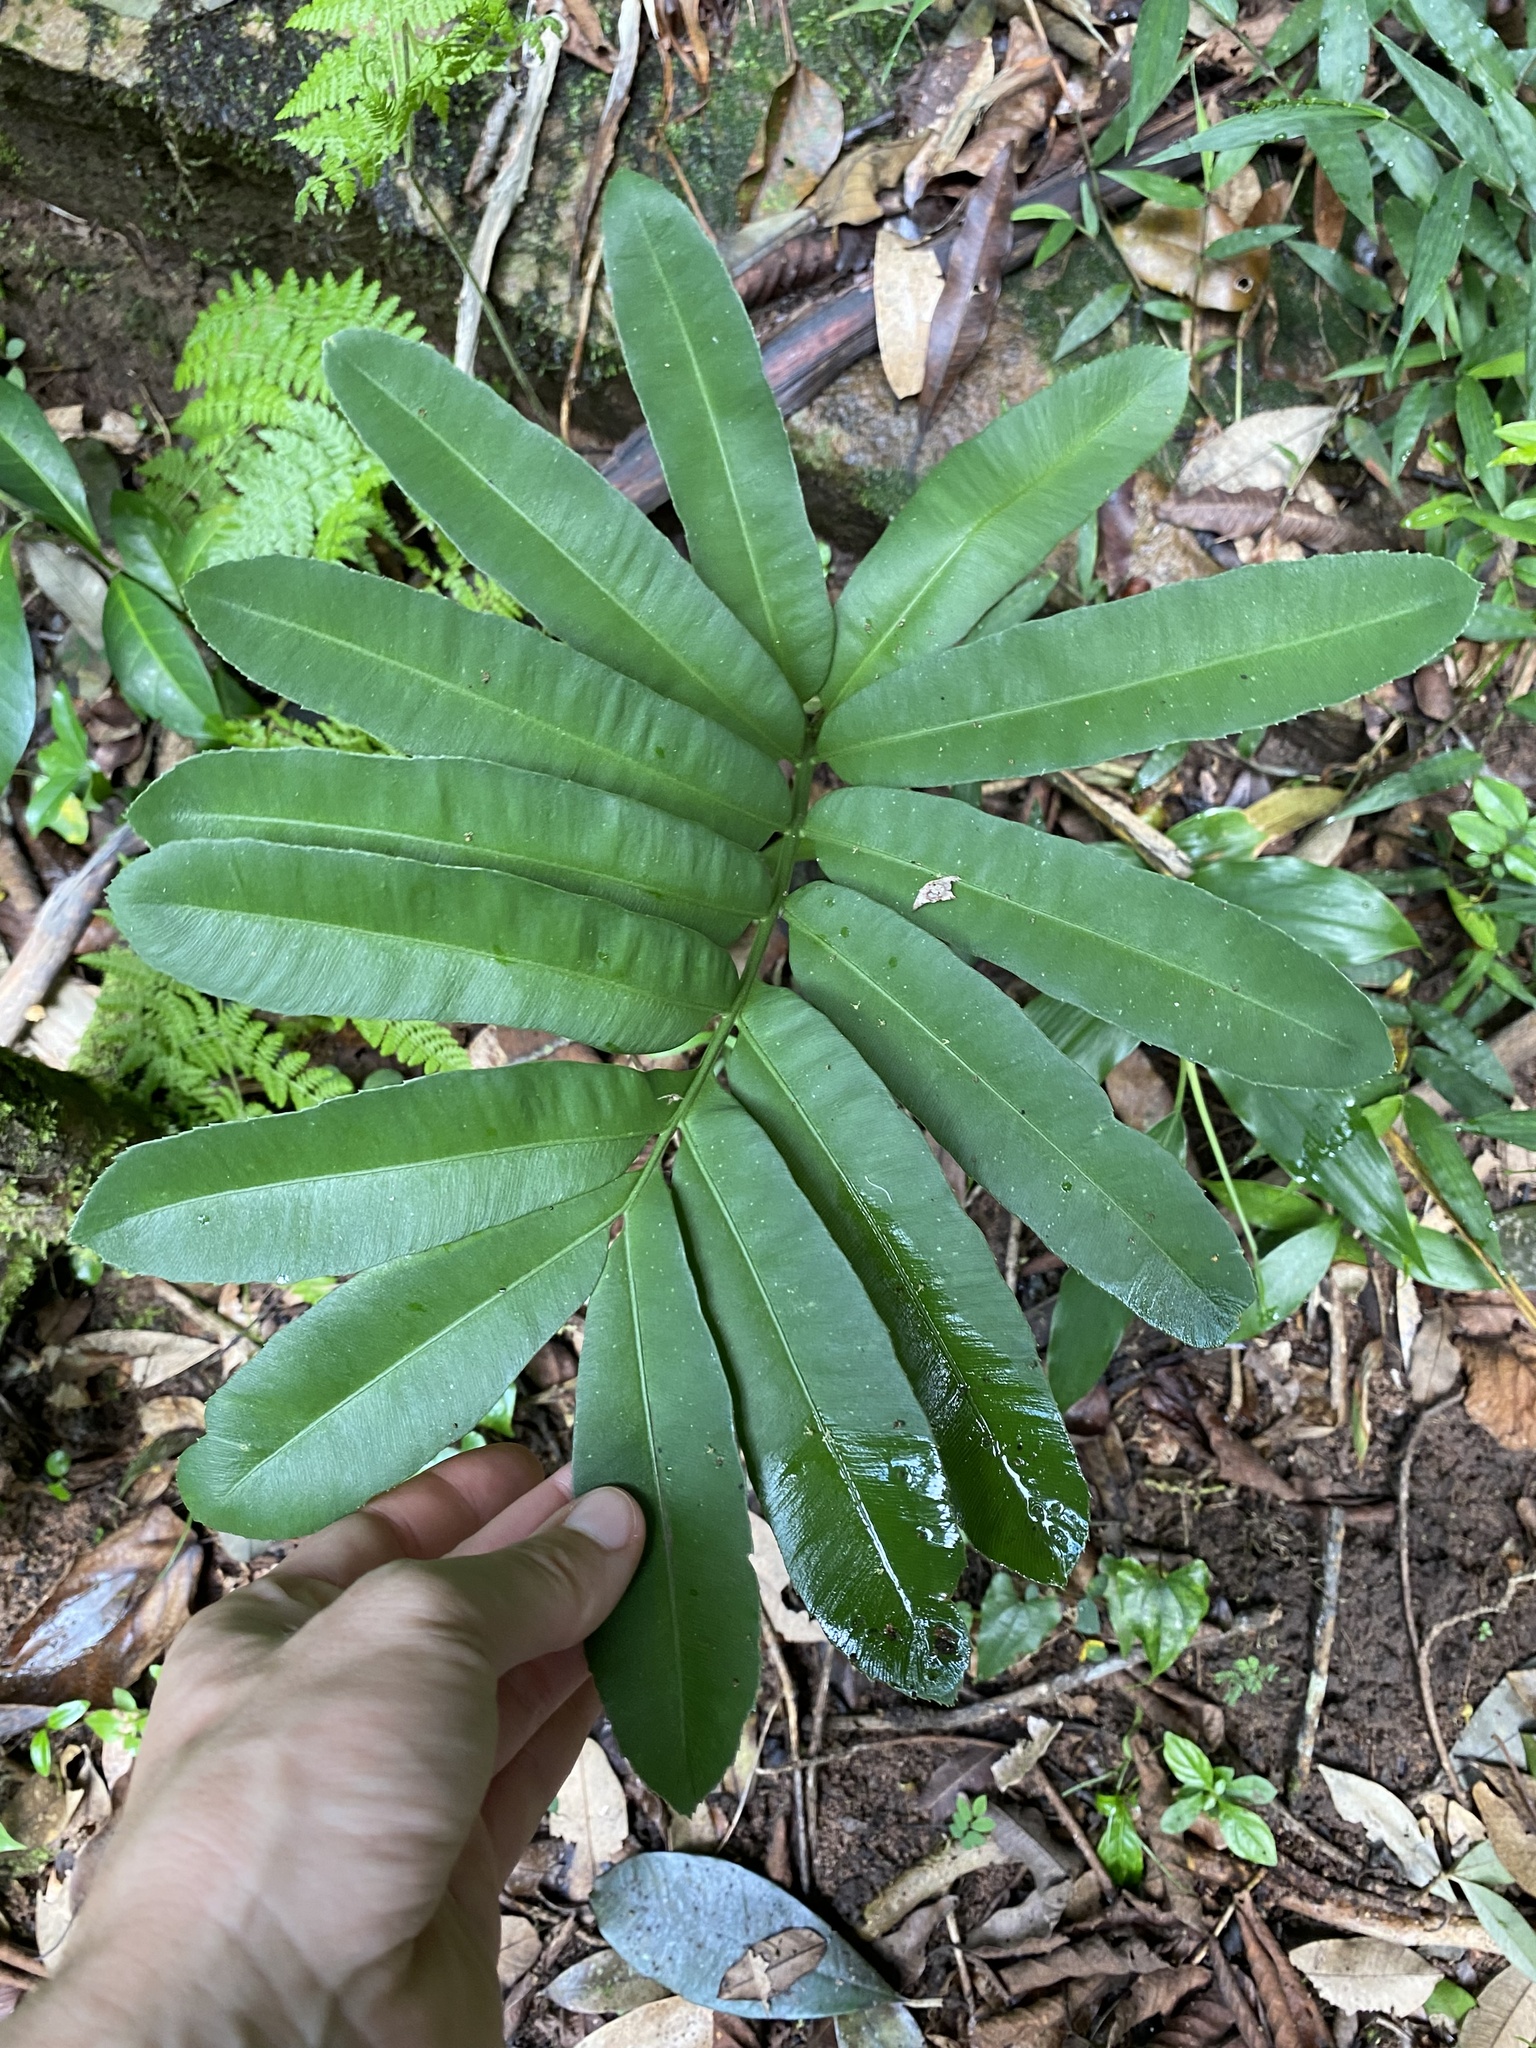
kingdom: Plantae
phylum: Tracheophyta
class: Cycadopsida
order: Cycadales
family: Zamiaceae
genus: Stangeria
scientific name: Stangeria eriopus
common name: Natal grass cycad
